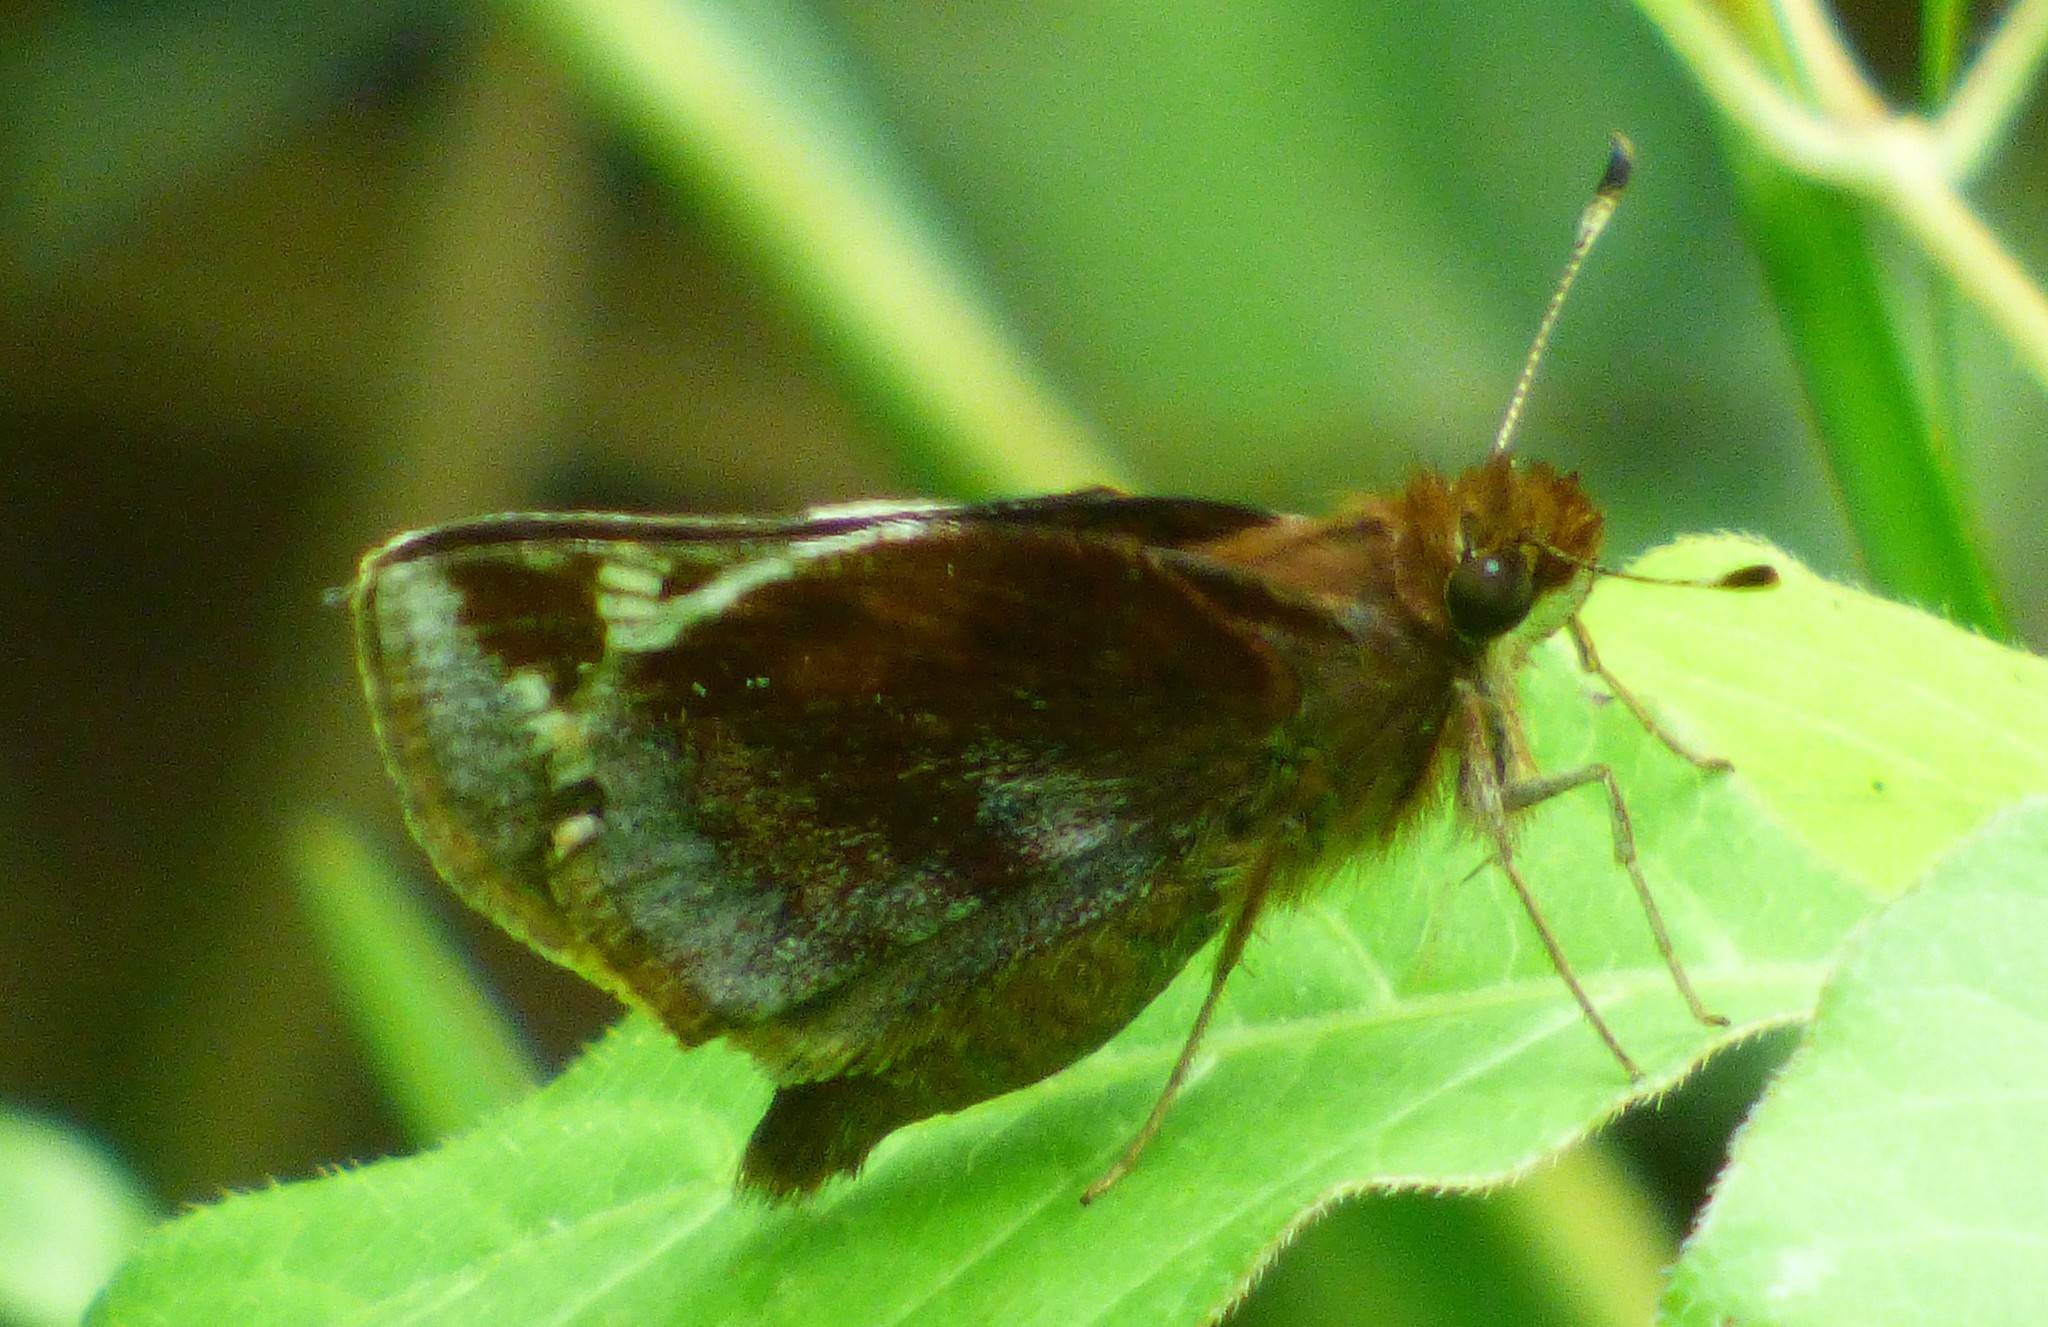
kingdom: Animalia
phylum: Arthropoda
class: Insecta
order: Lepidoptera
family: Hesperiidae
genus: Lon
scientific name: Lon zabulon
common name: Zabulon skipper
